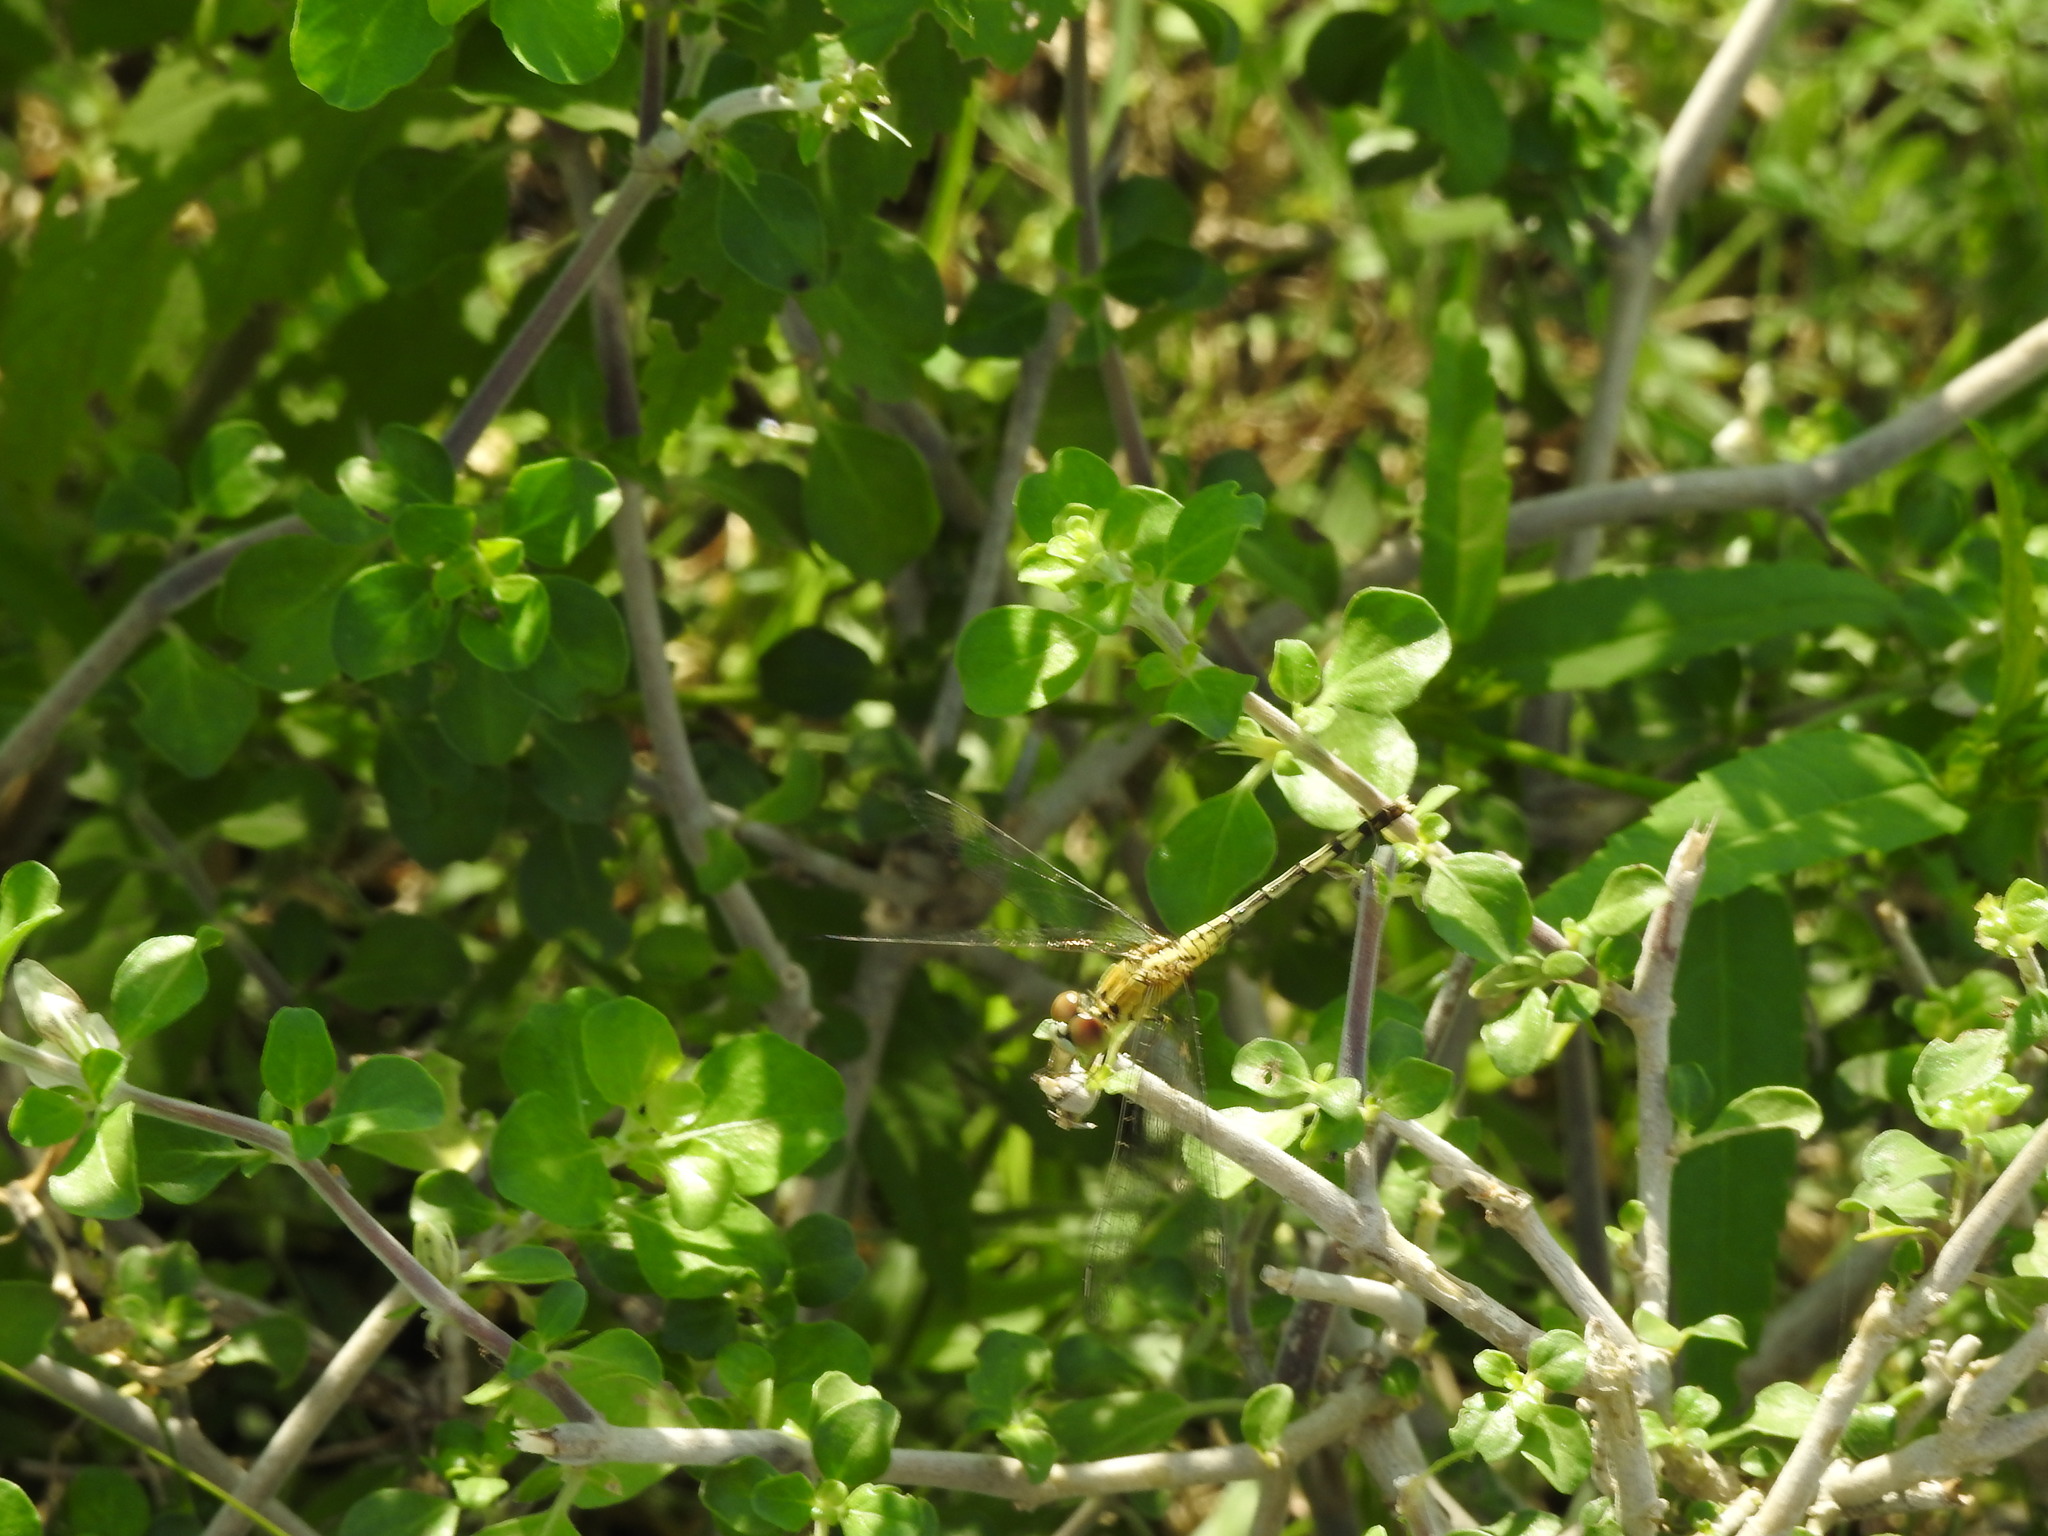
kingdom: Animalia
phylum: Arthropoda
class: Insecta
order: Odonata
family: Libellulidae
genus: Indothemis
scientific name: Indothemis carnatica
